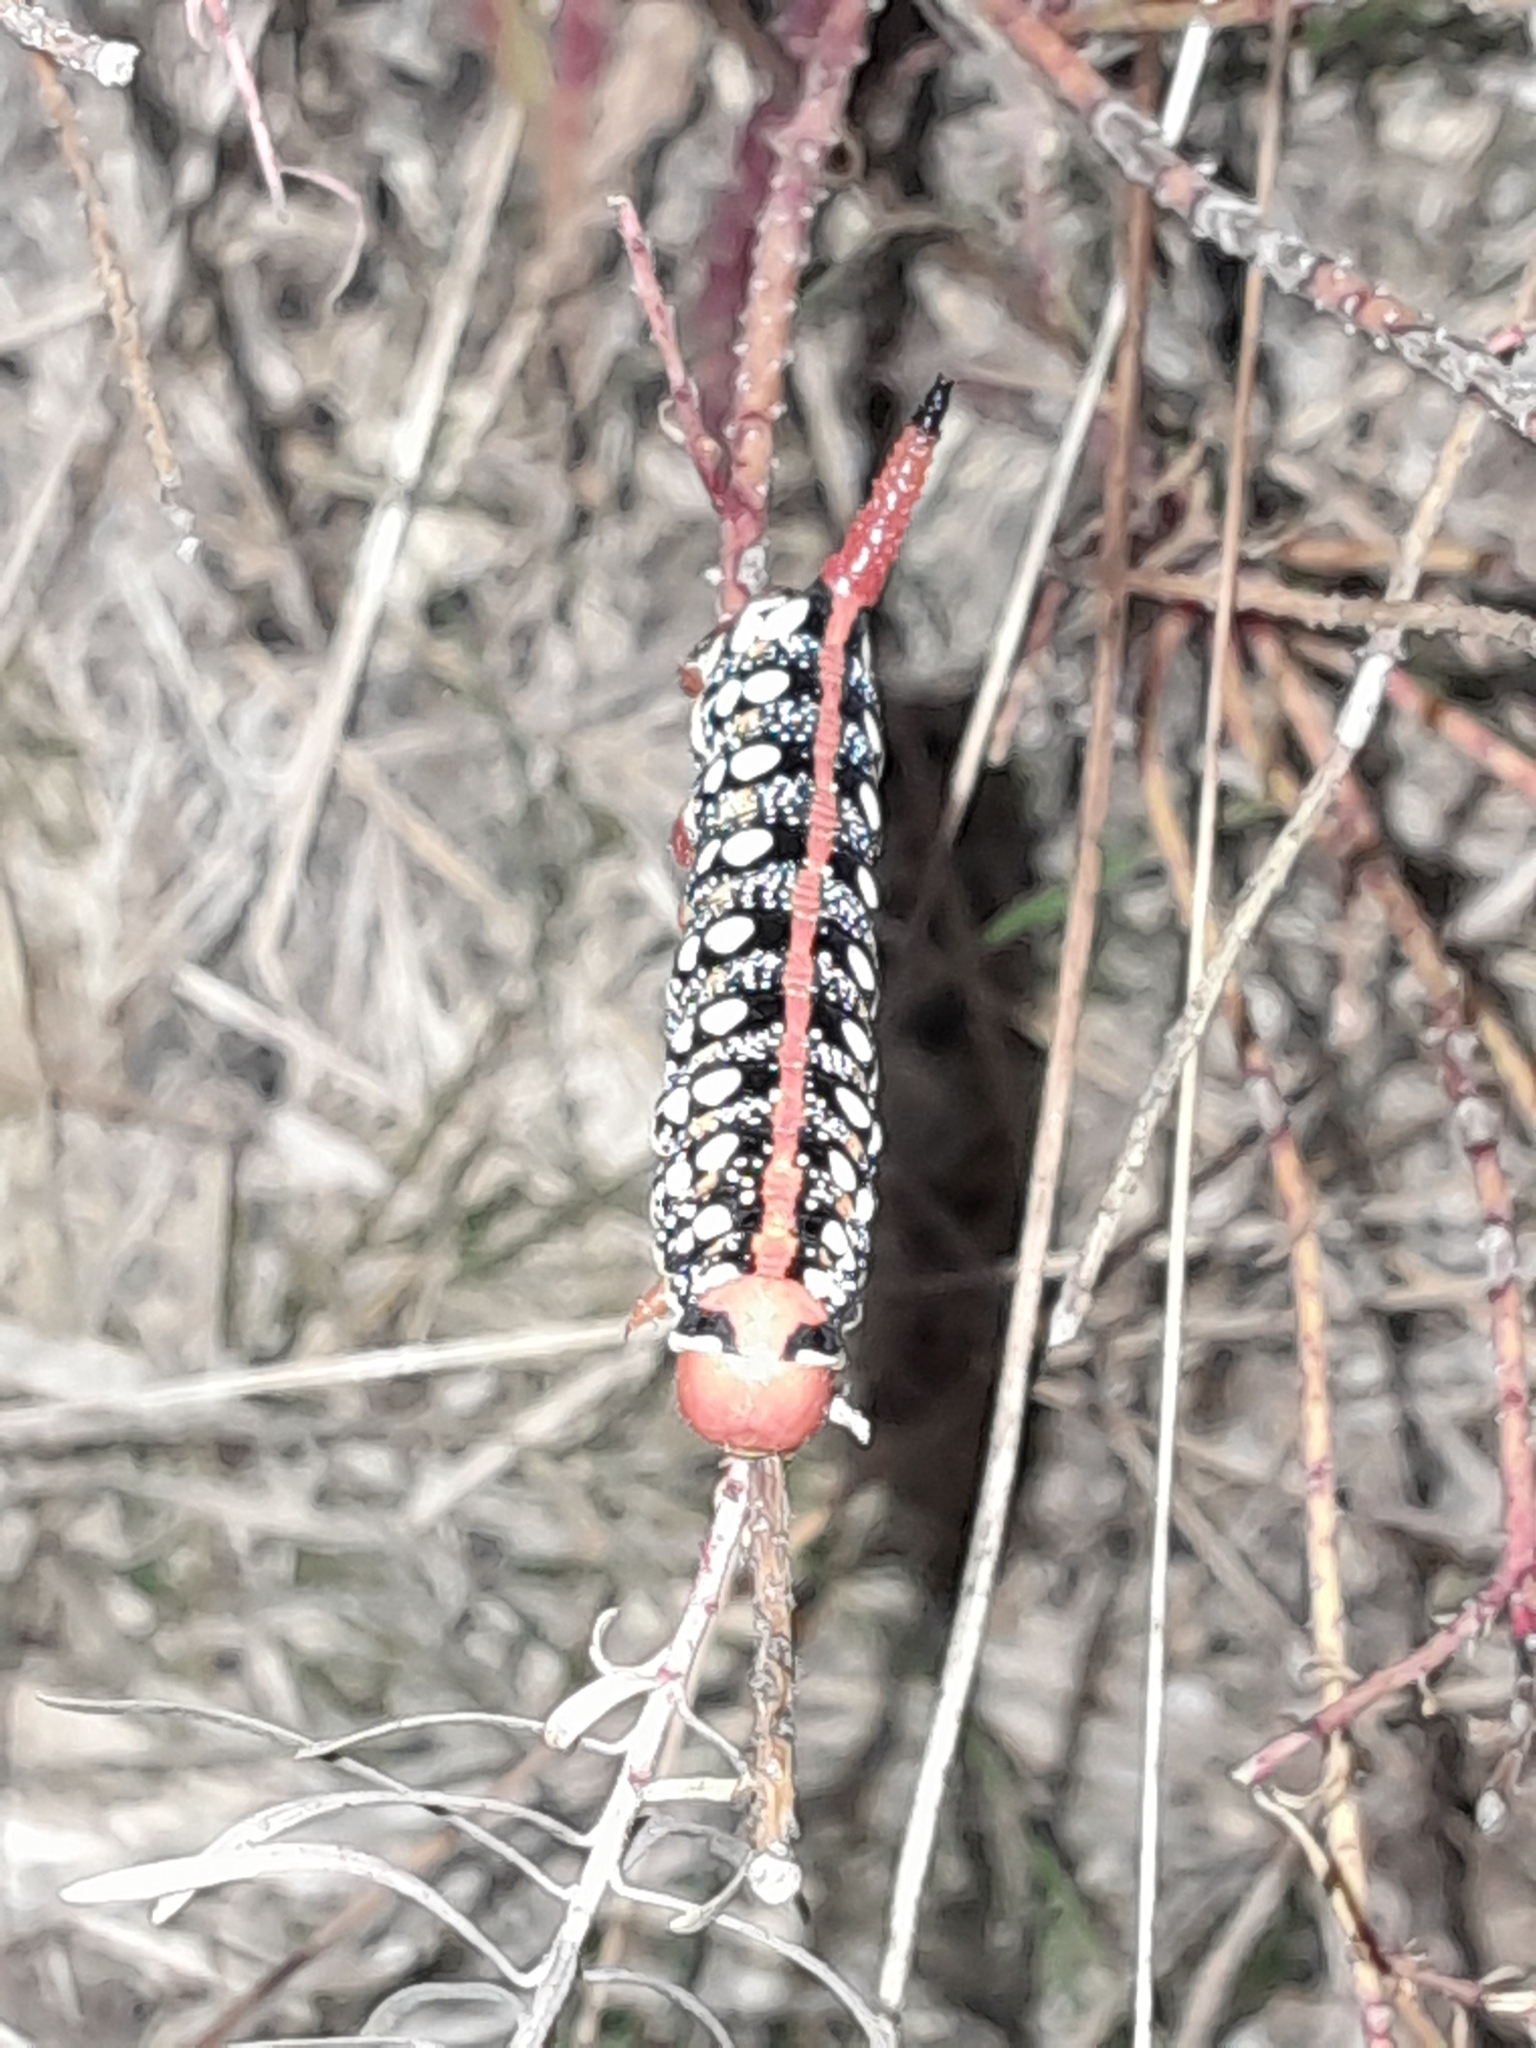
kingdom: Animalia
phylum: Arthropoda
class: Insecta
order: Lepidoptera
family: Sphingidae
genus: Hyles
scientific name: Hyles euphorbiae
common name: Spurge hawk-moth
